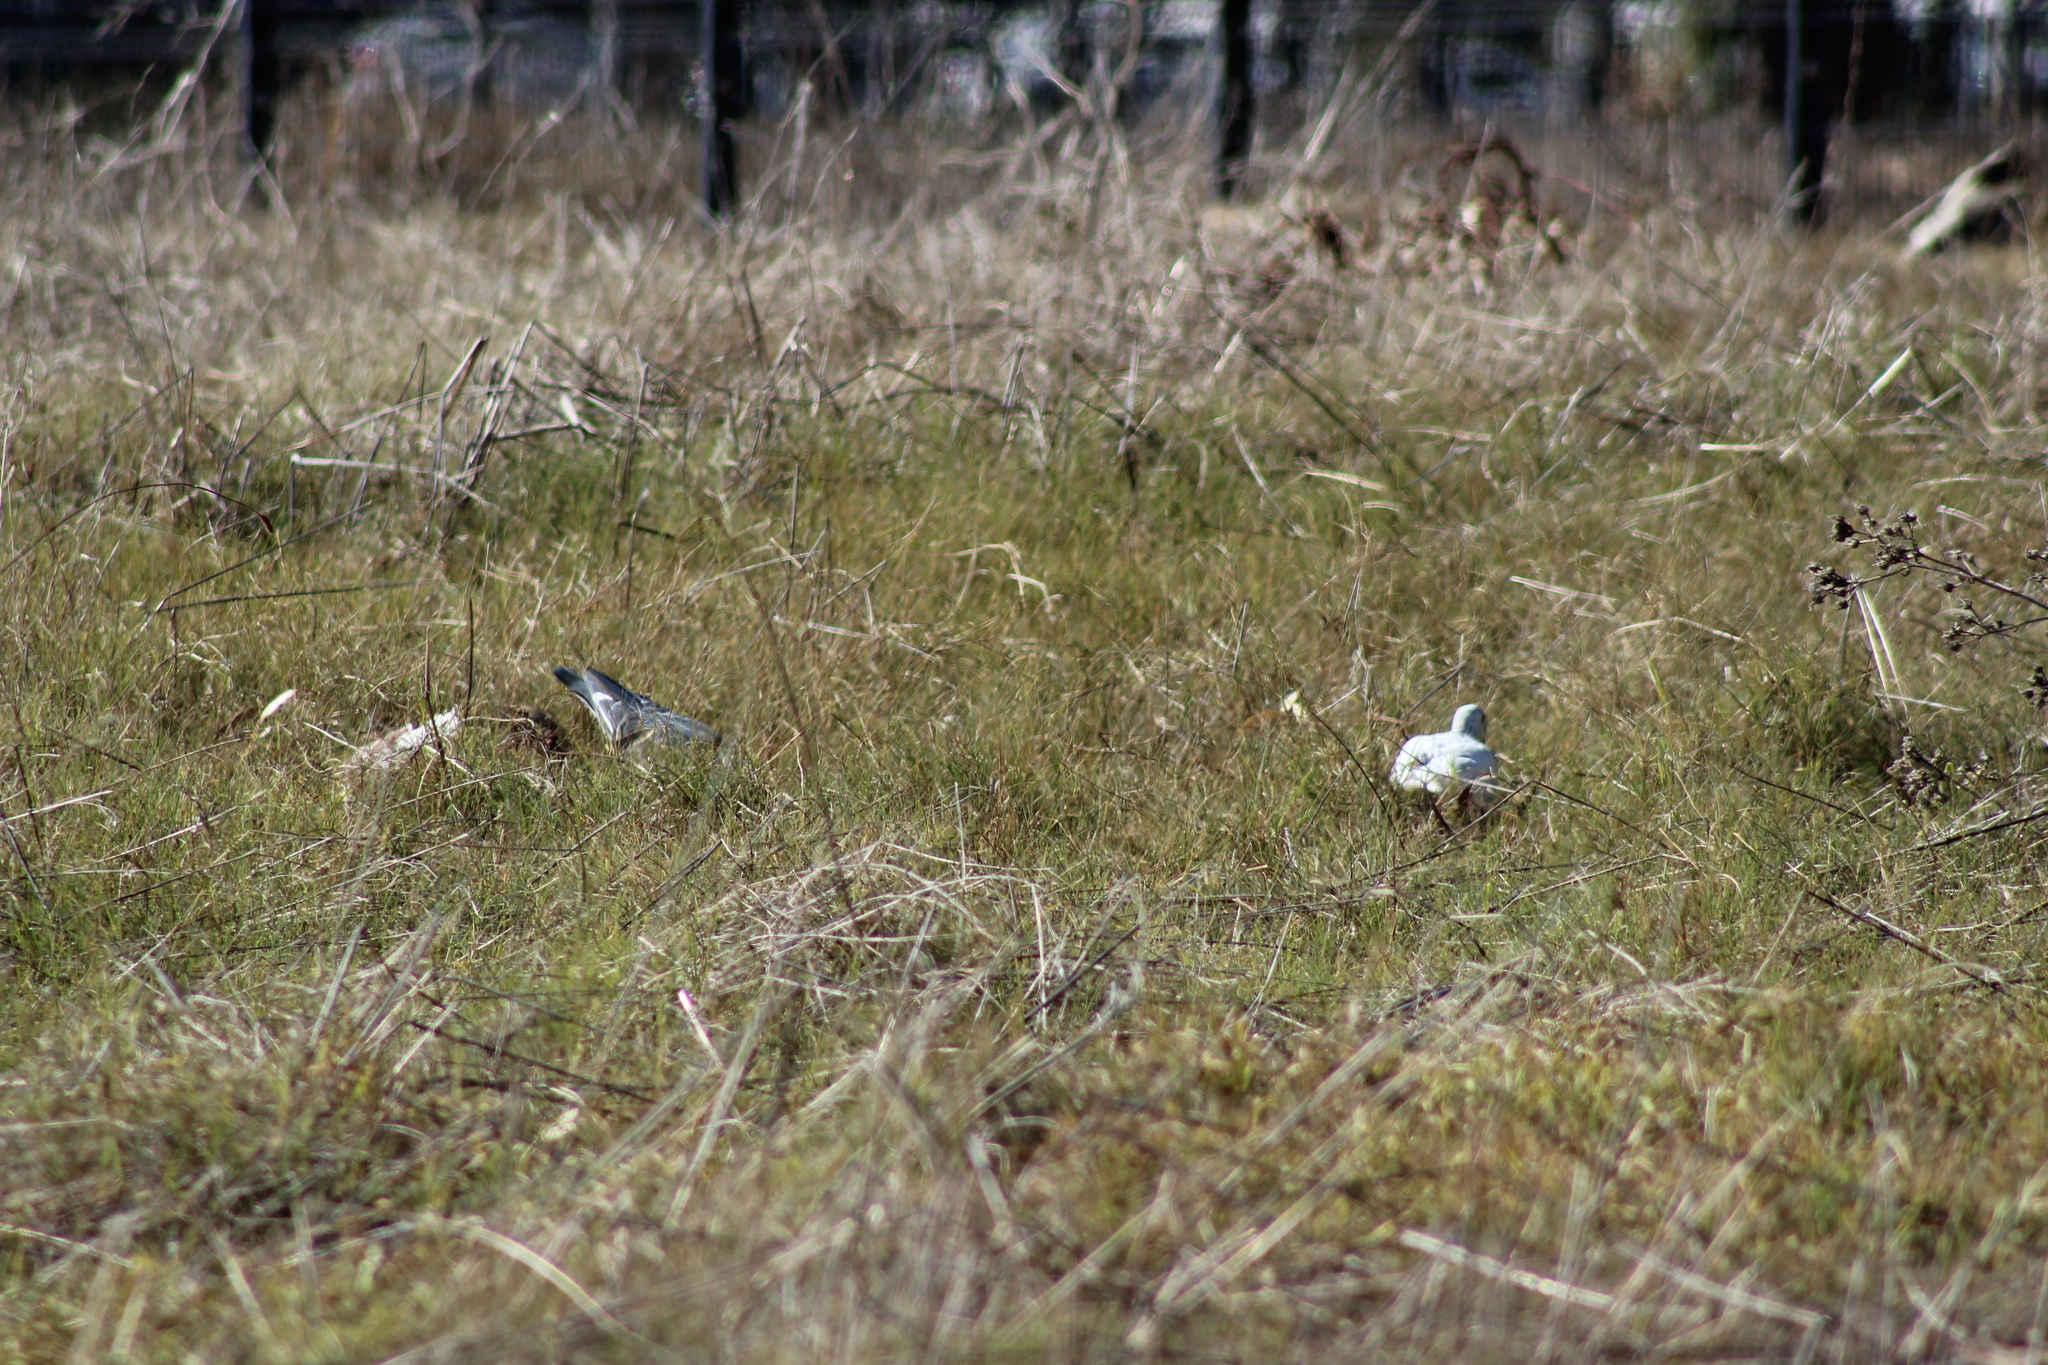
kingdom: Animalia
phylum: Chordata
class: Aves
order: Columbiformes
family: Columbidae
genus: Columba
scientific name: Columba livia
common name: Rock pigeon
